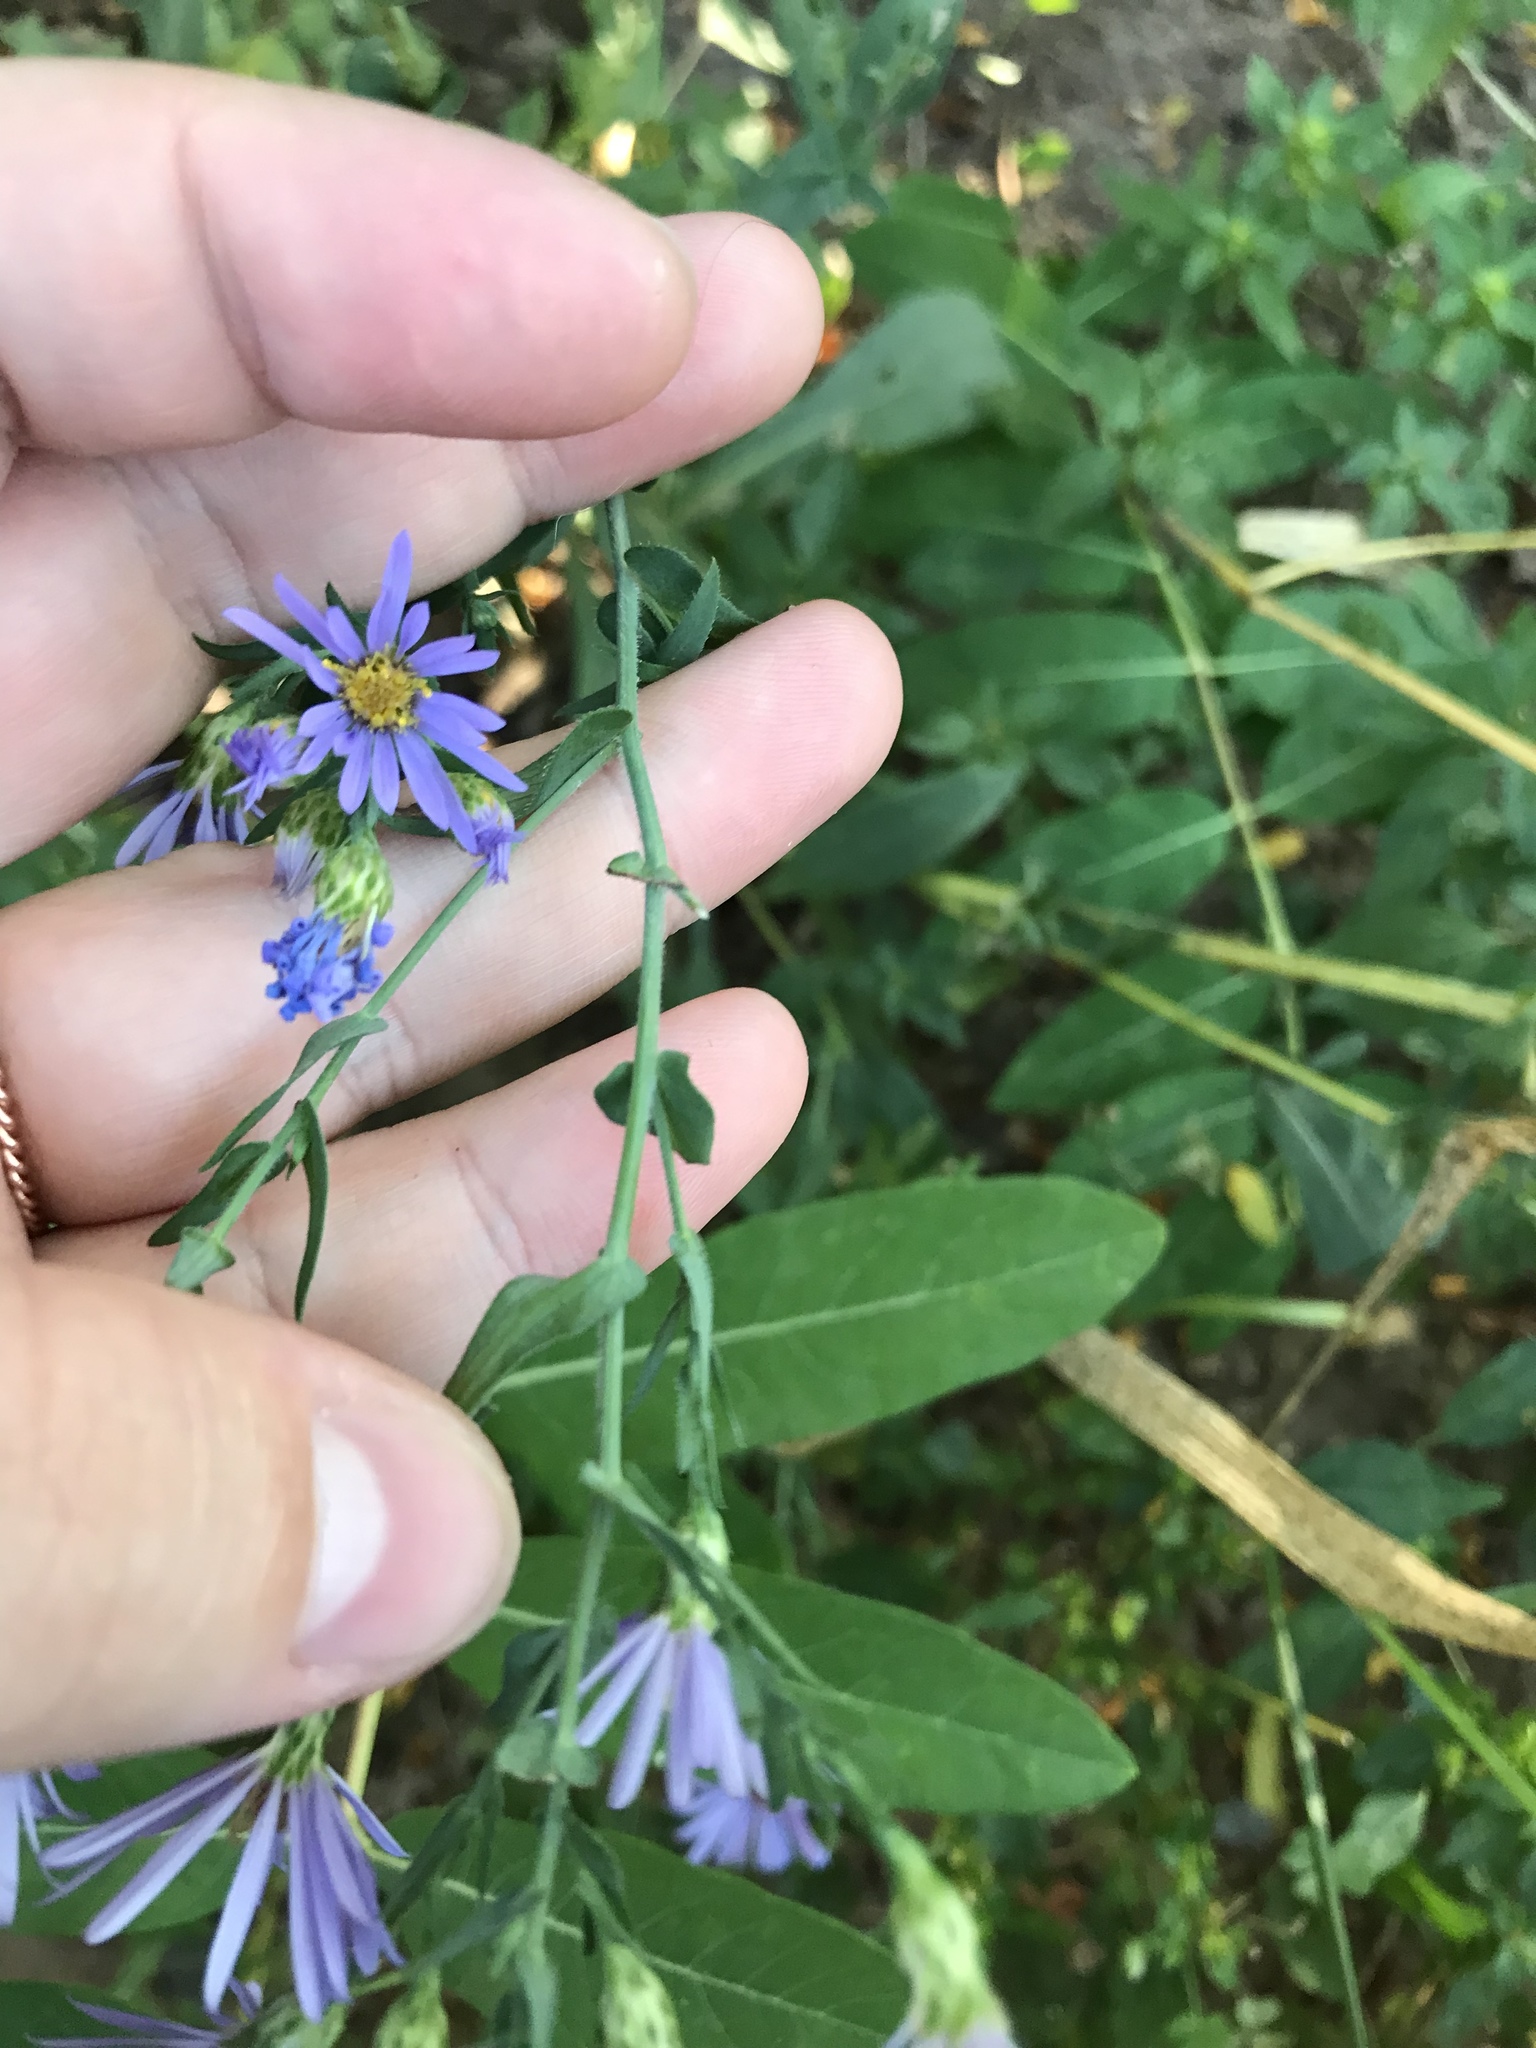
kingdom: Plantae
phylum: Tracheophyta
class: Magnoliopsida
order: Asterales
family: Asteraceae
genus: Symphyotrichum
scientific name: Symphyotrichum patens
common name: Late purple aster
